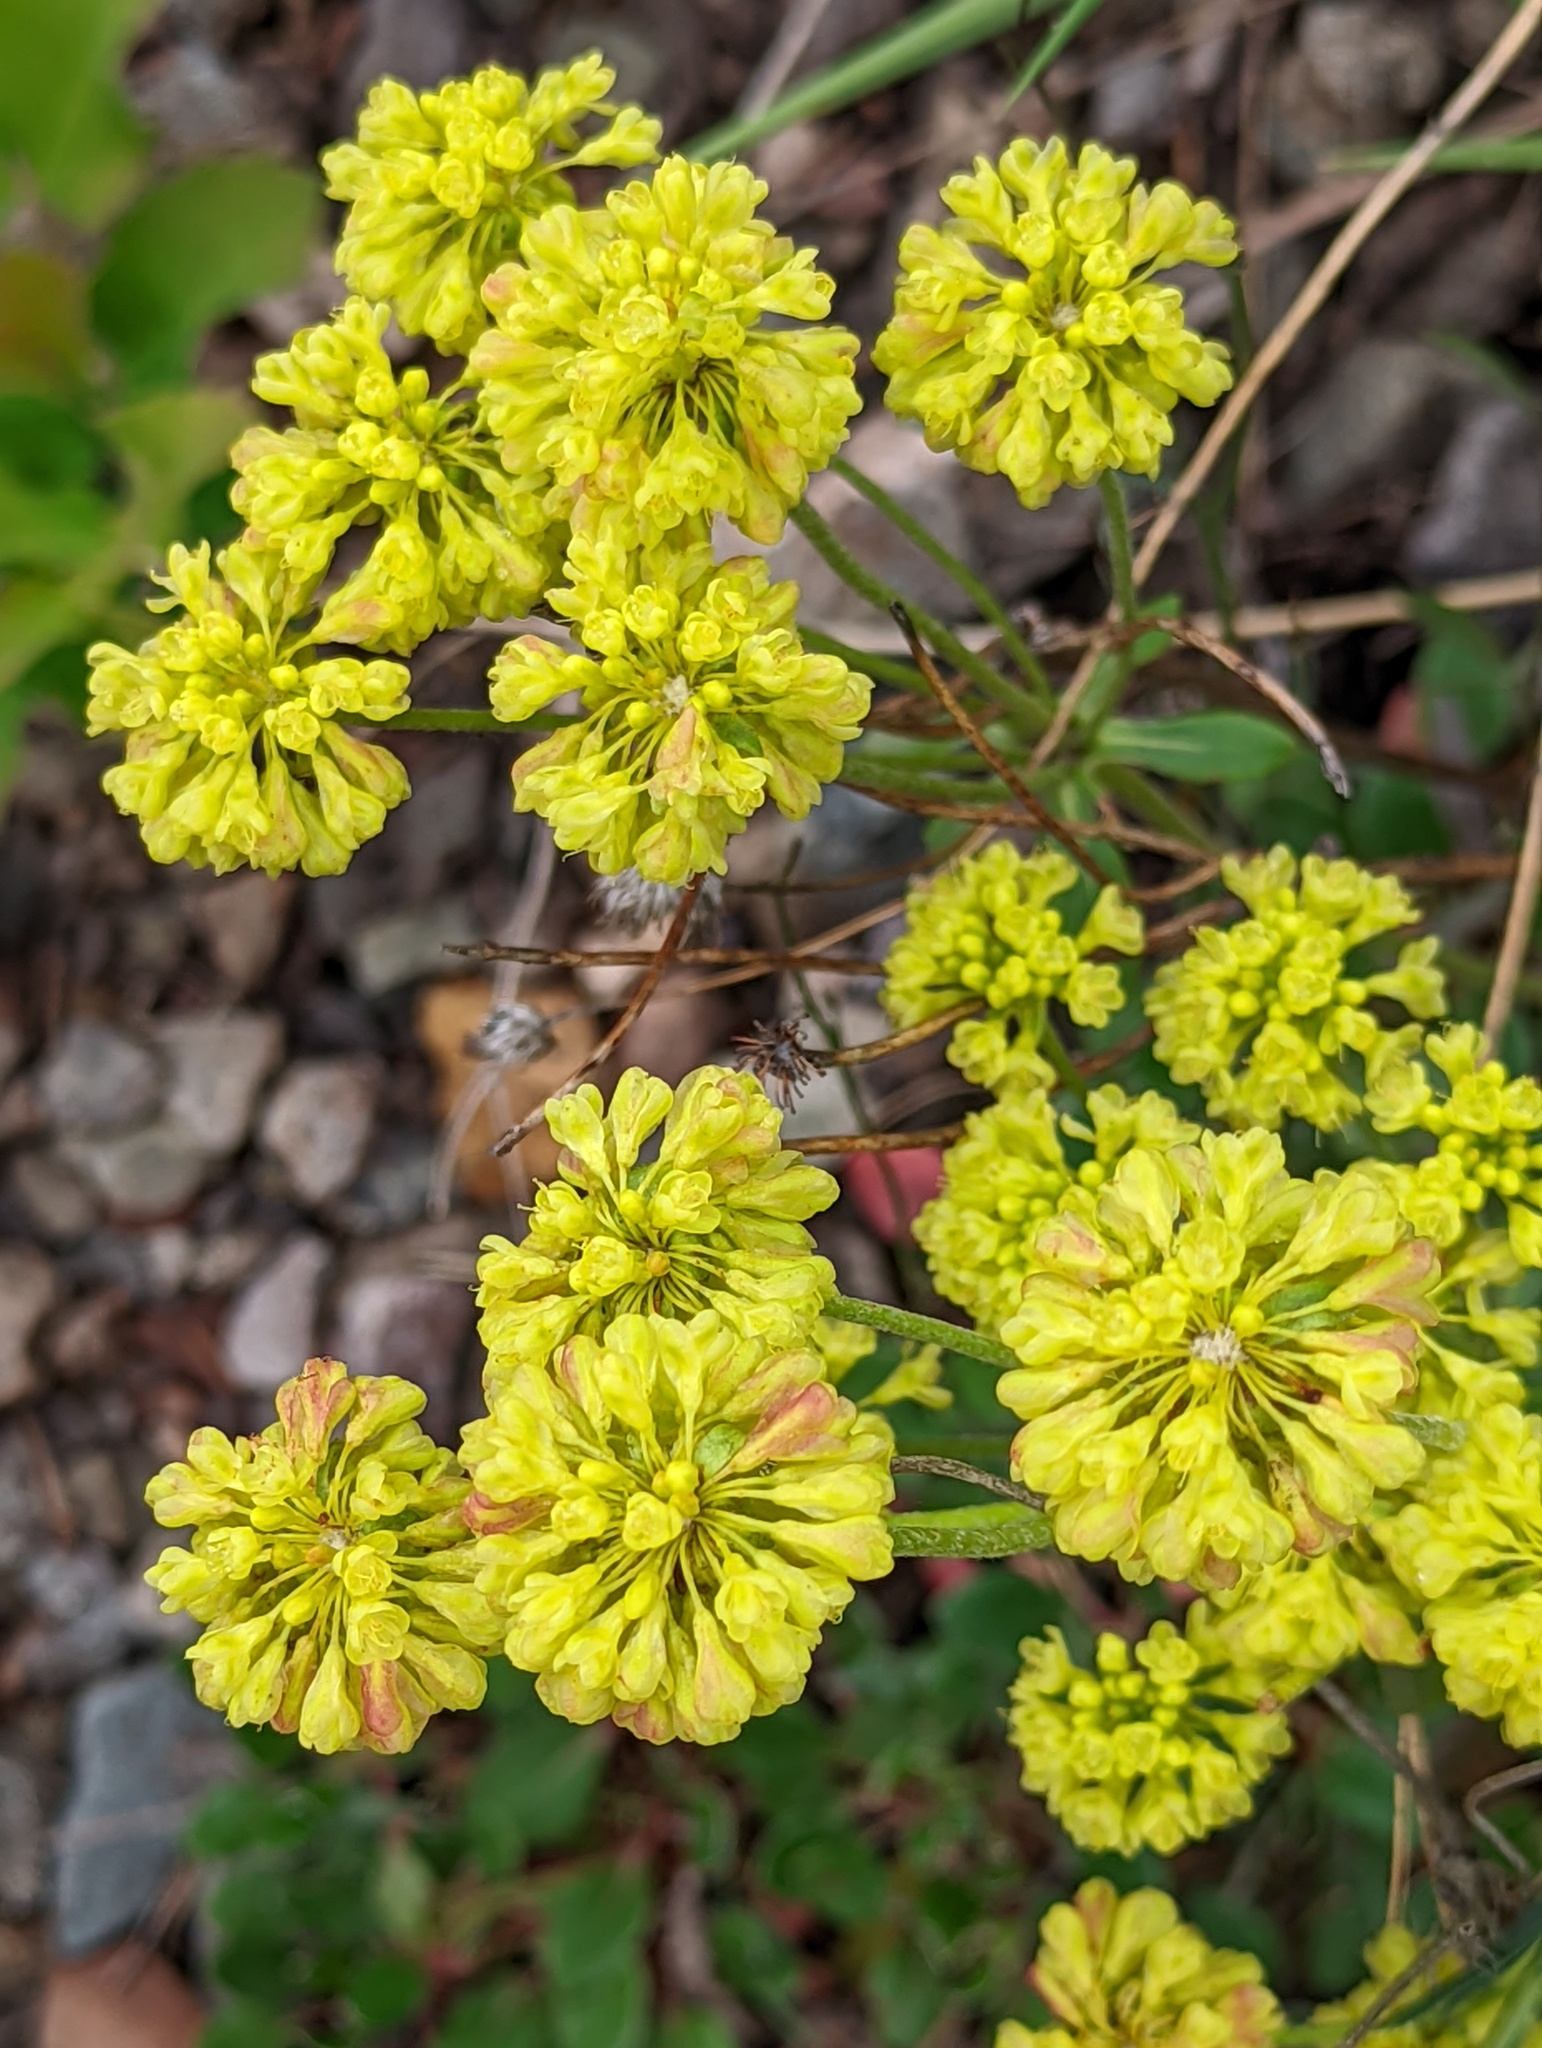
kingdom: Plantae
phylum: Tracheophyta
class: Magnoliopsida
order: Caryophyllales
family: Polygonaceae
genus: Eriogonum
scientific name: Eriogonum umbellatum
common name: Sulfur-buckwheat
